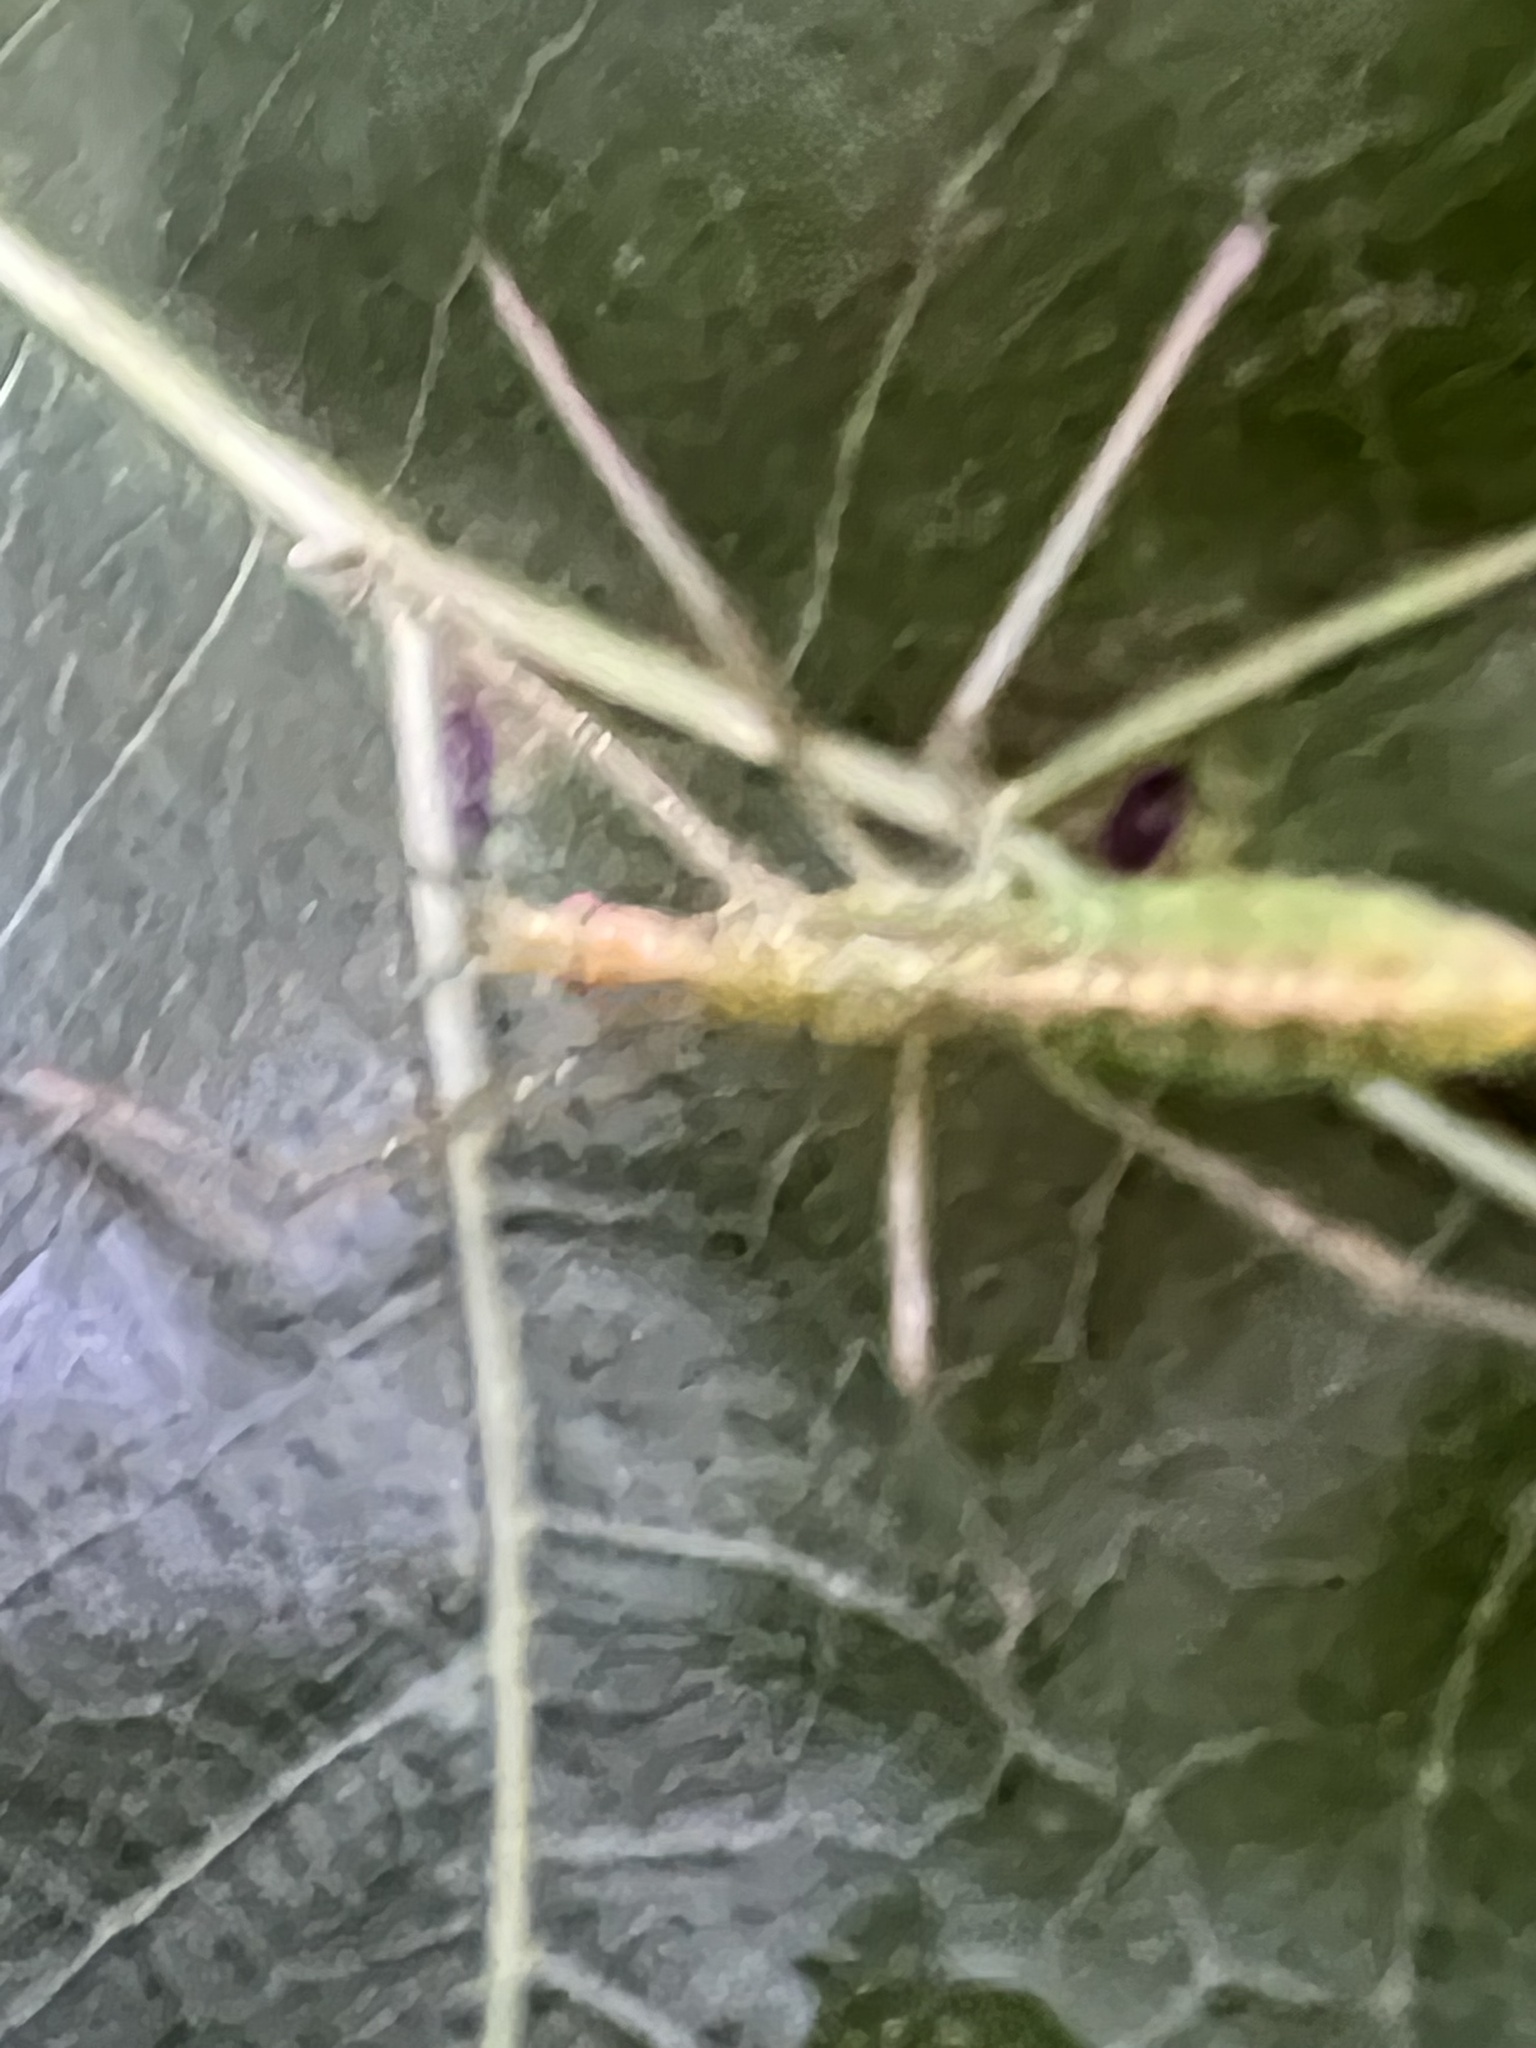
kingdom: Animalia
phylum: Arthropoda
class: Insecta
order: Hemiptera
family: Reduviidae
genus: Zelus
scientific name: Zelus luridus
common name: Pale green assassin bug
